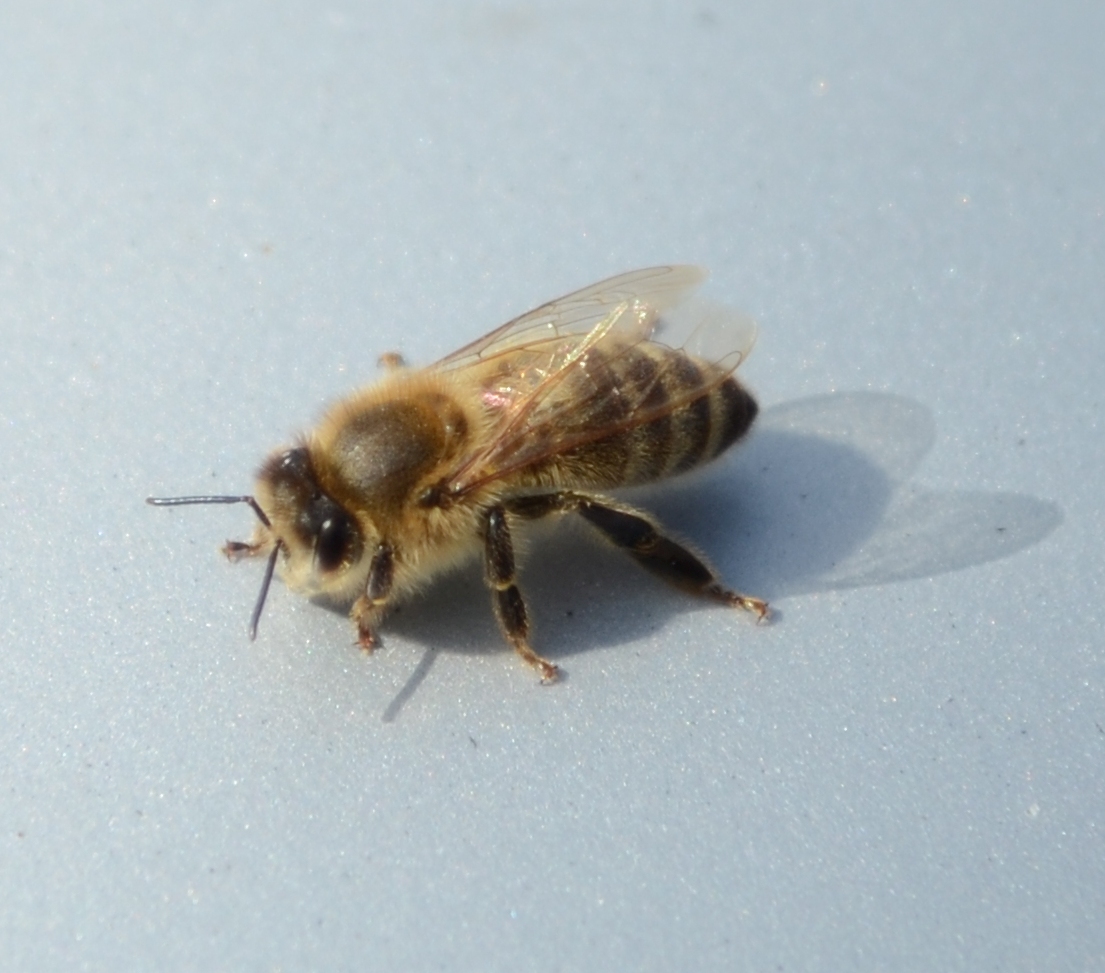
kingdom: Animalia
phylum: Arthropoda
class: Insecta
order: Hymenoptera
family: Apidae
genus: Apis
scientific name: Apis mellifera
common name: Honey bee
